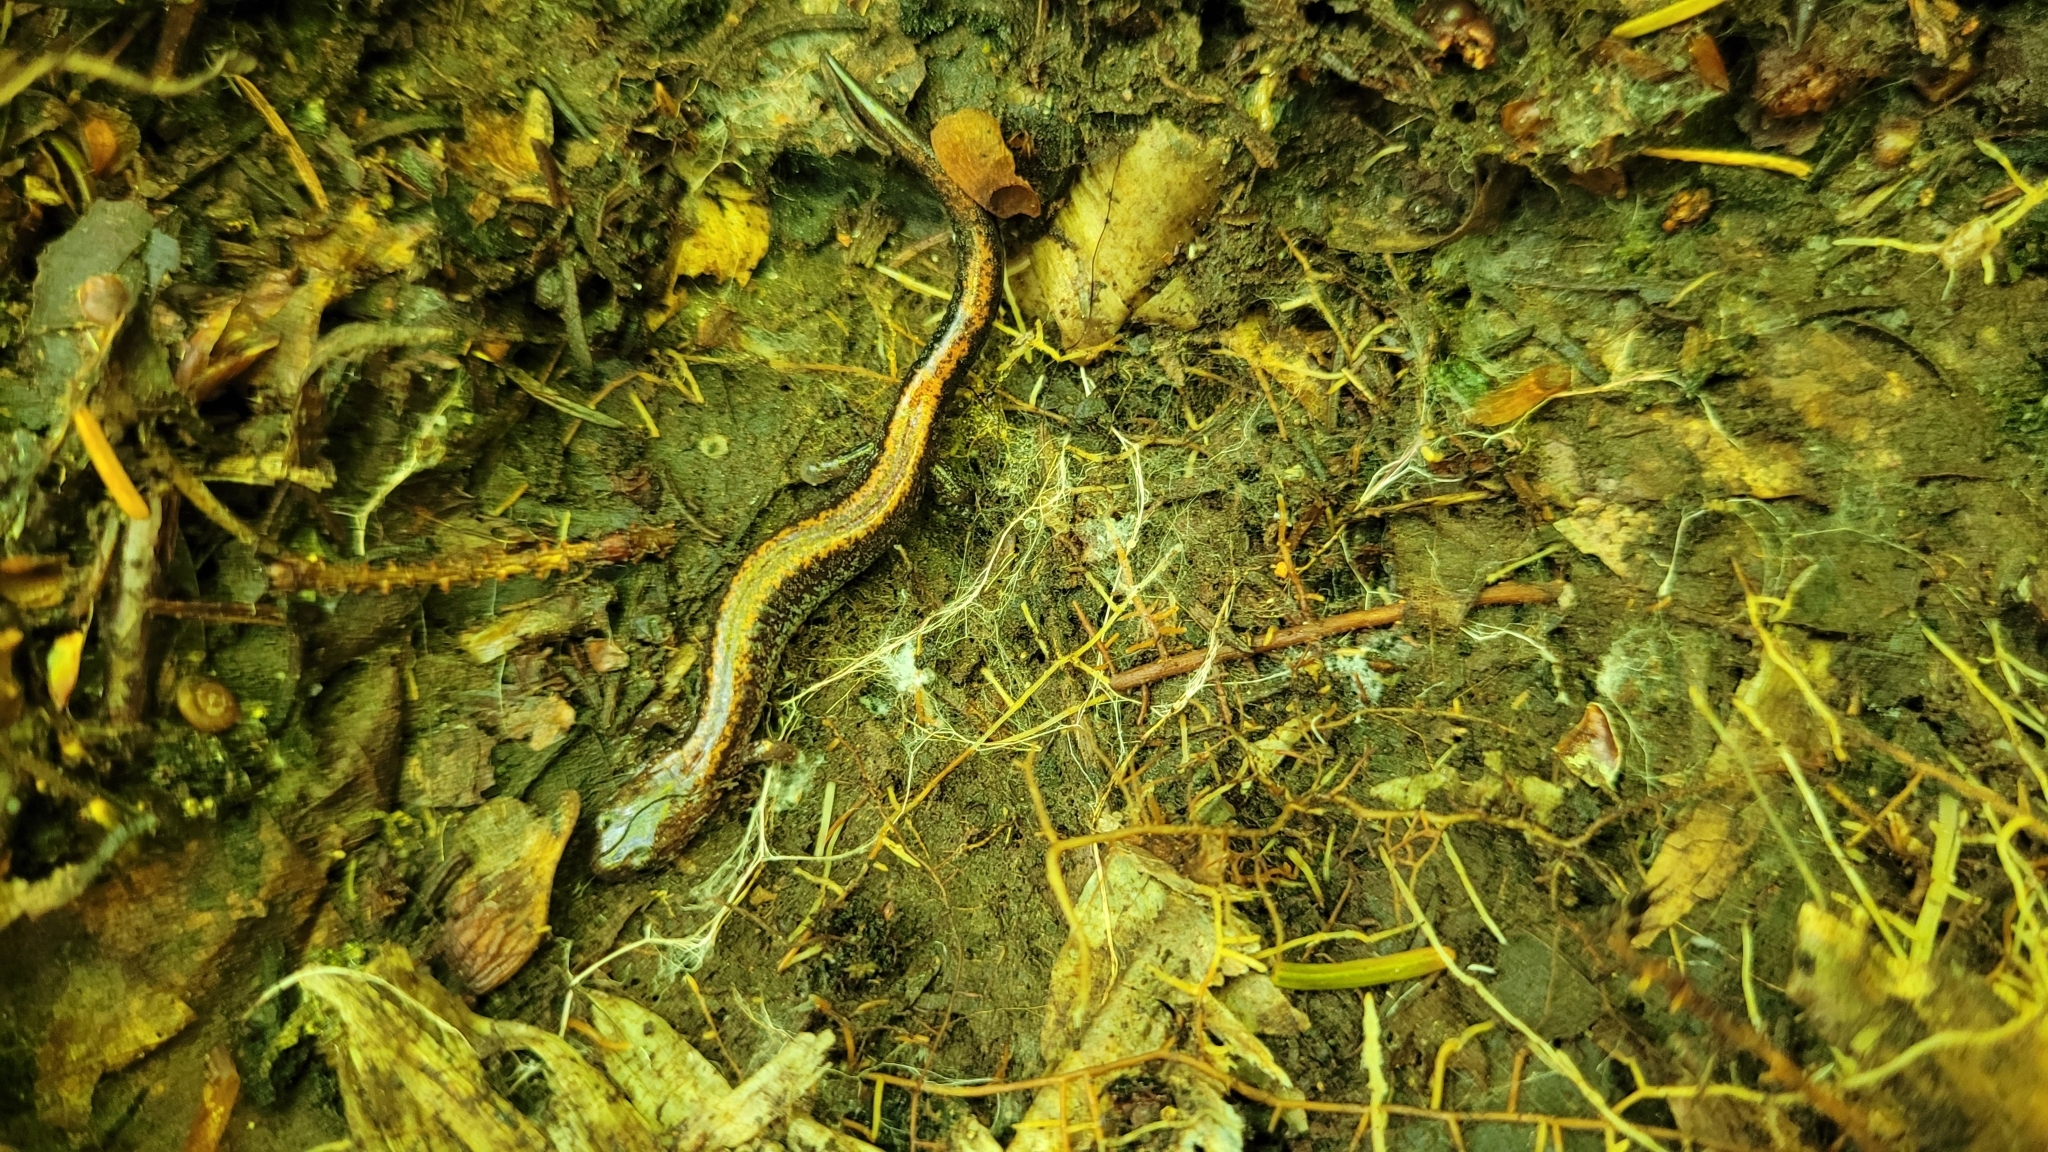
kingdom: Animalia
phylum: Chordata
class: Amphibia
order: Caudata
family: Plethodontidae
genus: Plethodon
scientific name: Plethodon cinereus
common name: Redback salamander
